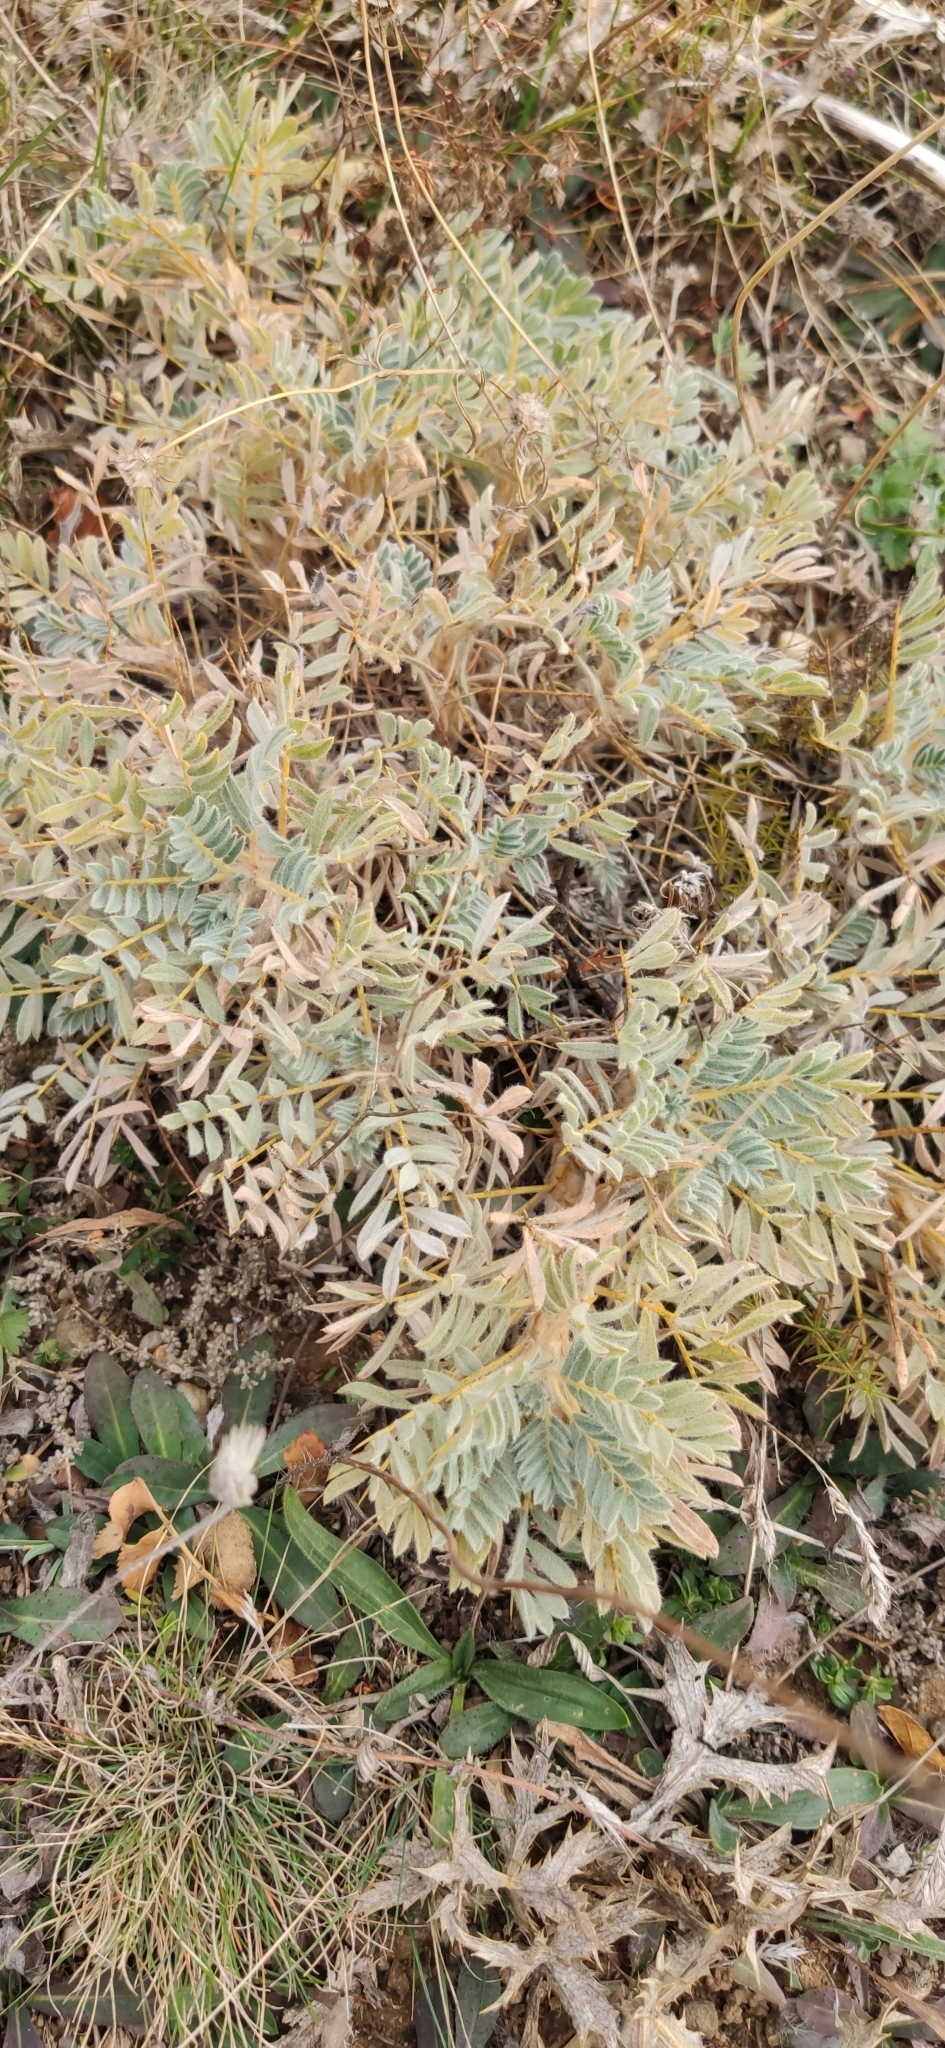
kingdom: Plantae
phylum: Tracheophyta
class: Magnoliopsida
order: Fabales
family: Fabaceae
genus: Astragalus
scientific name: Astragalus arnacantha
